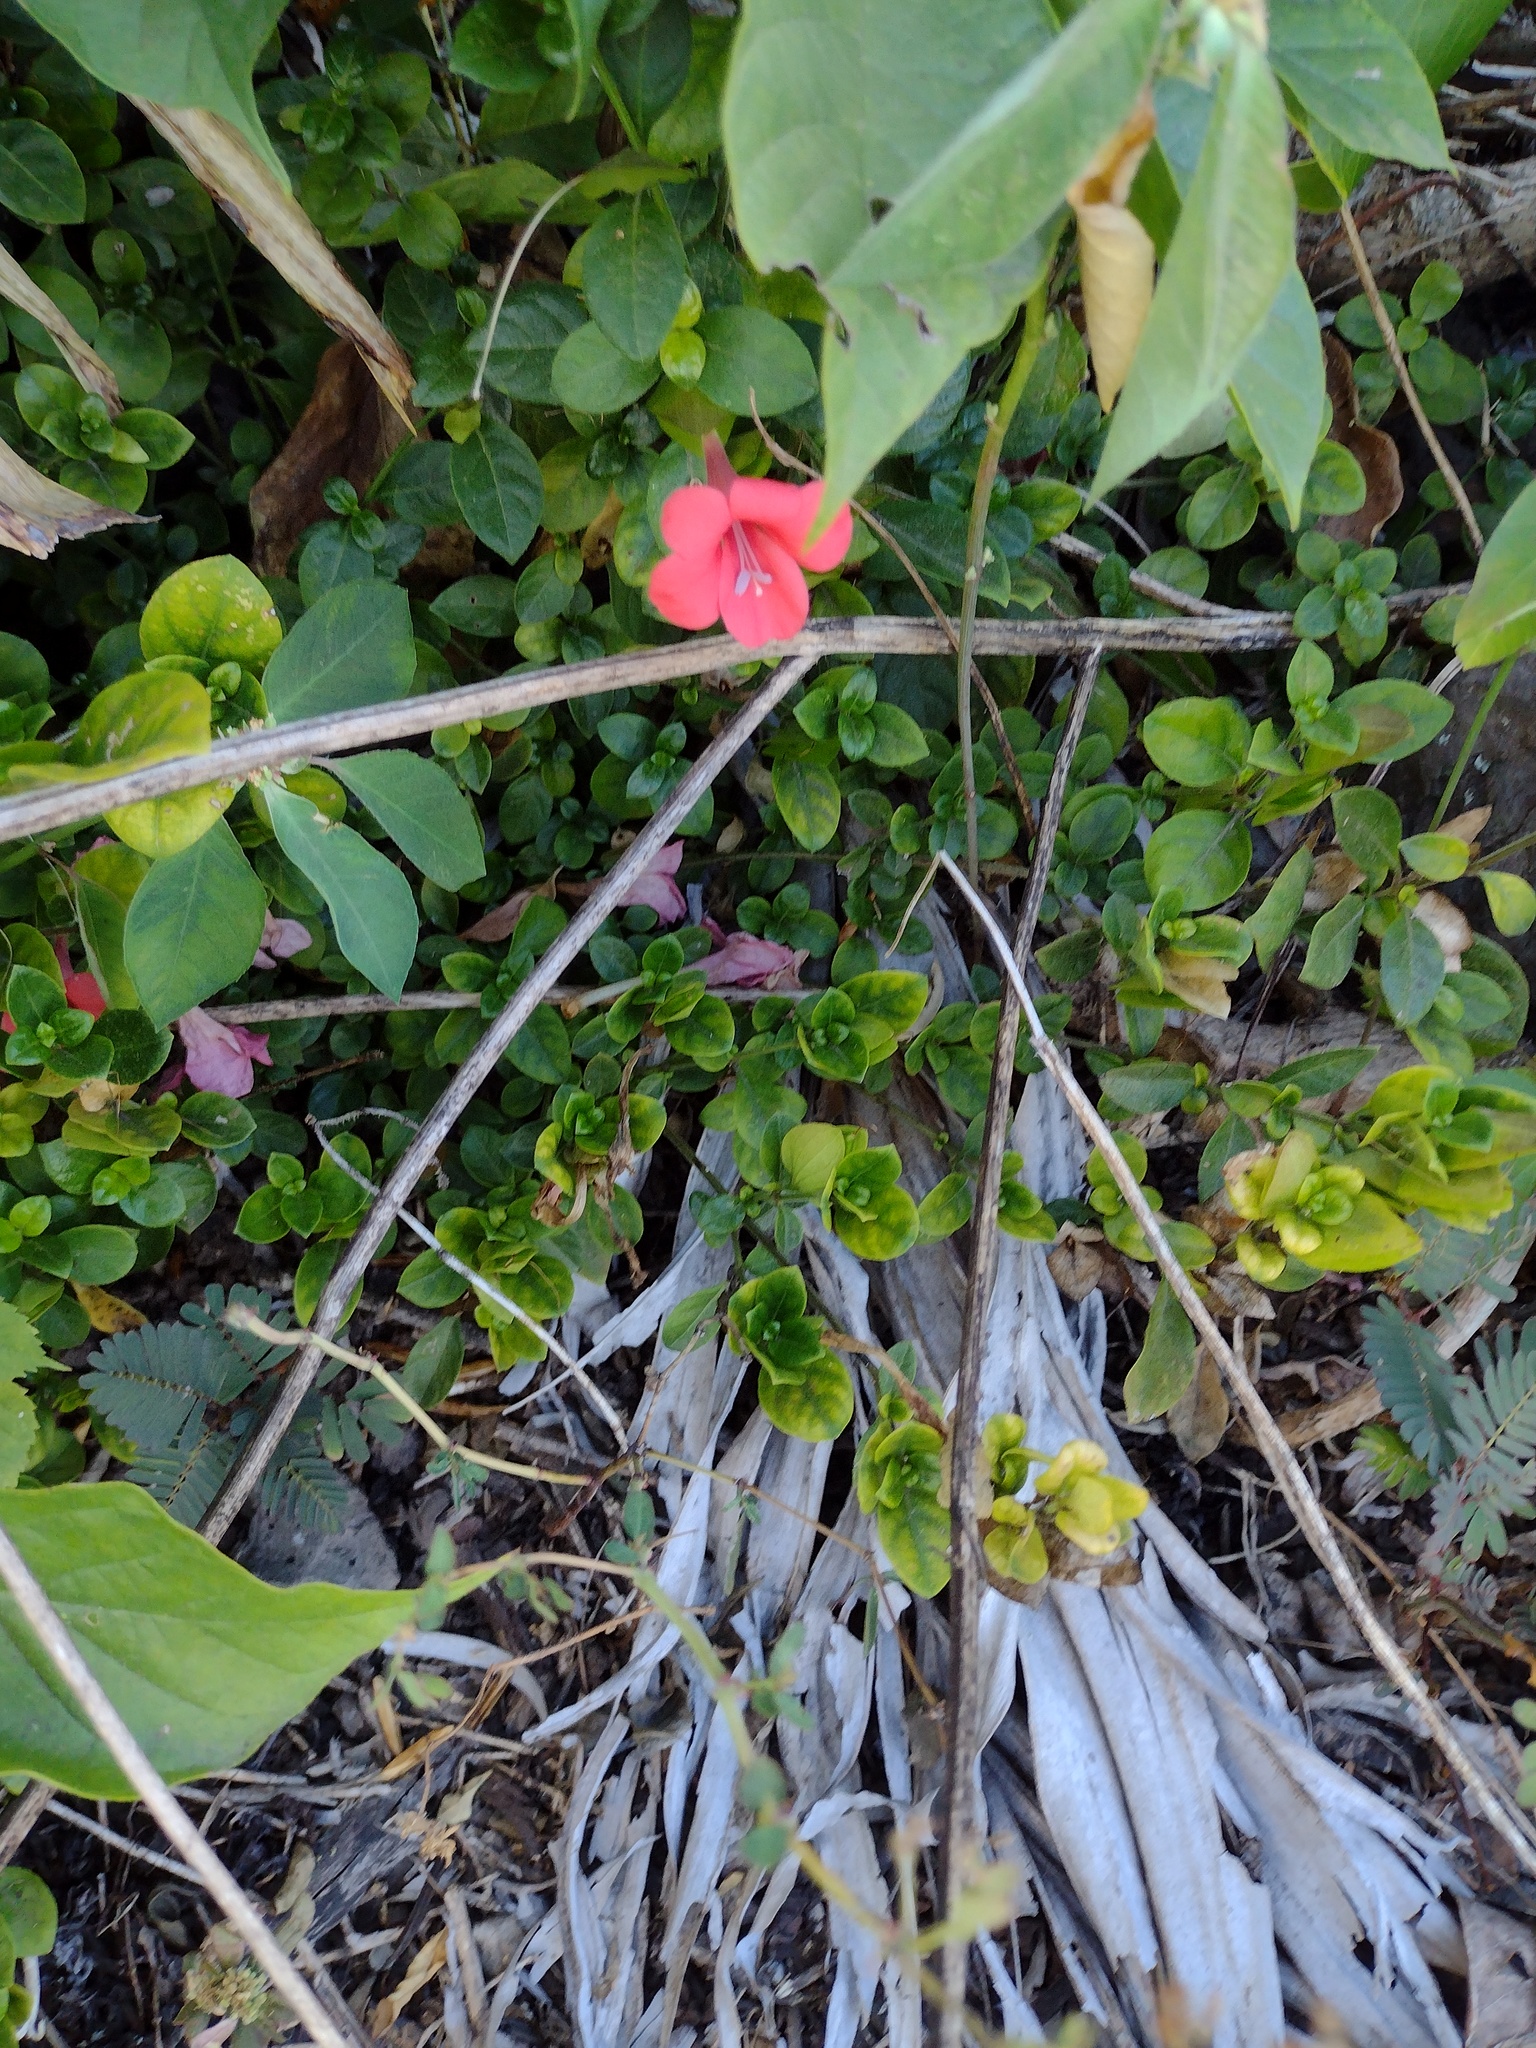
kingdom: Plantae
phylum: Tracheophyta
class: Magnoliopsida
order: Lamiales
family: Acanthaceae
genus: Barleria
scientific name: Barleria repens
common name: Pink-ruellia
